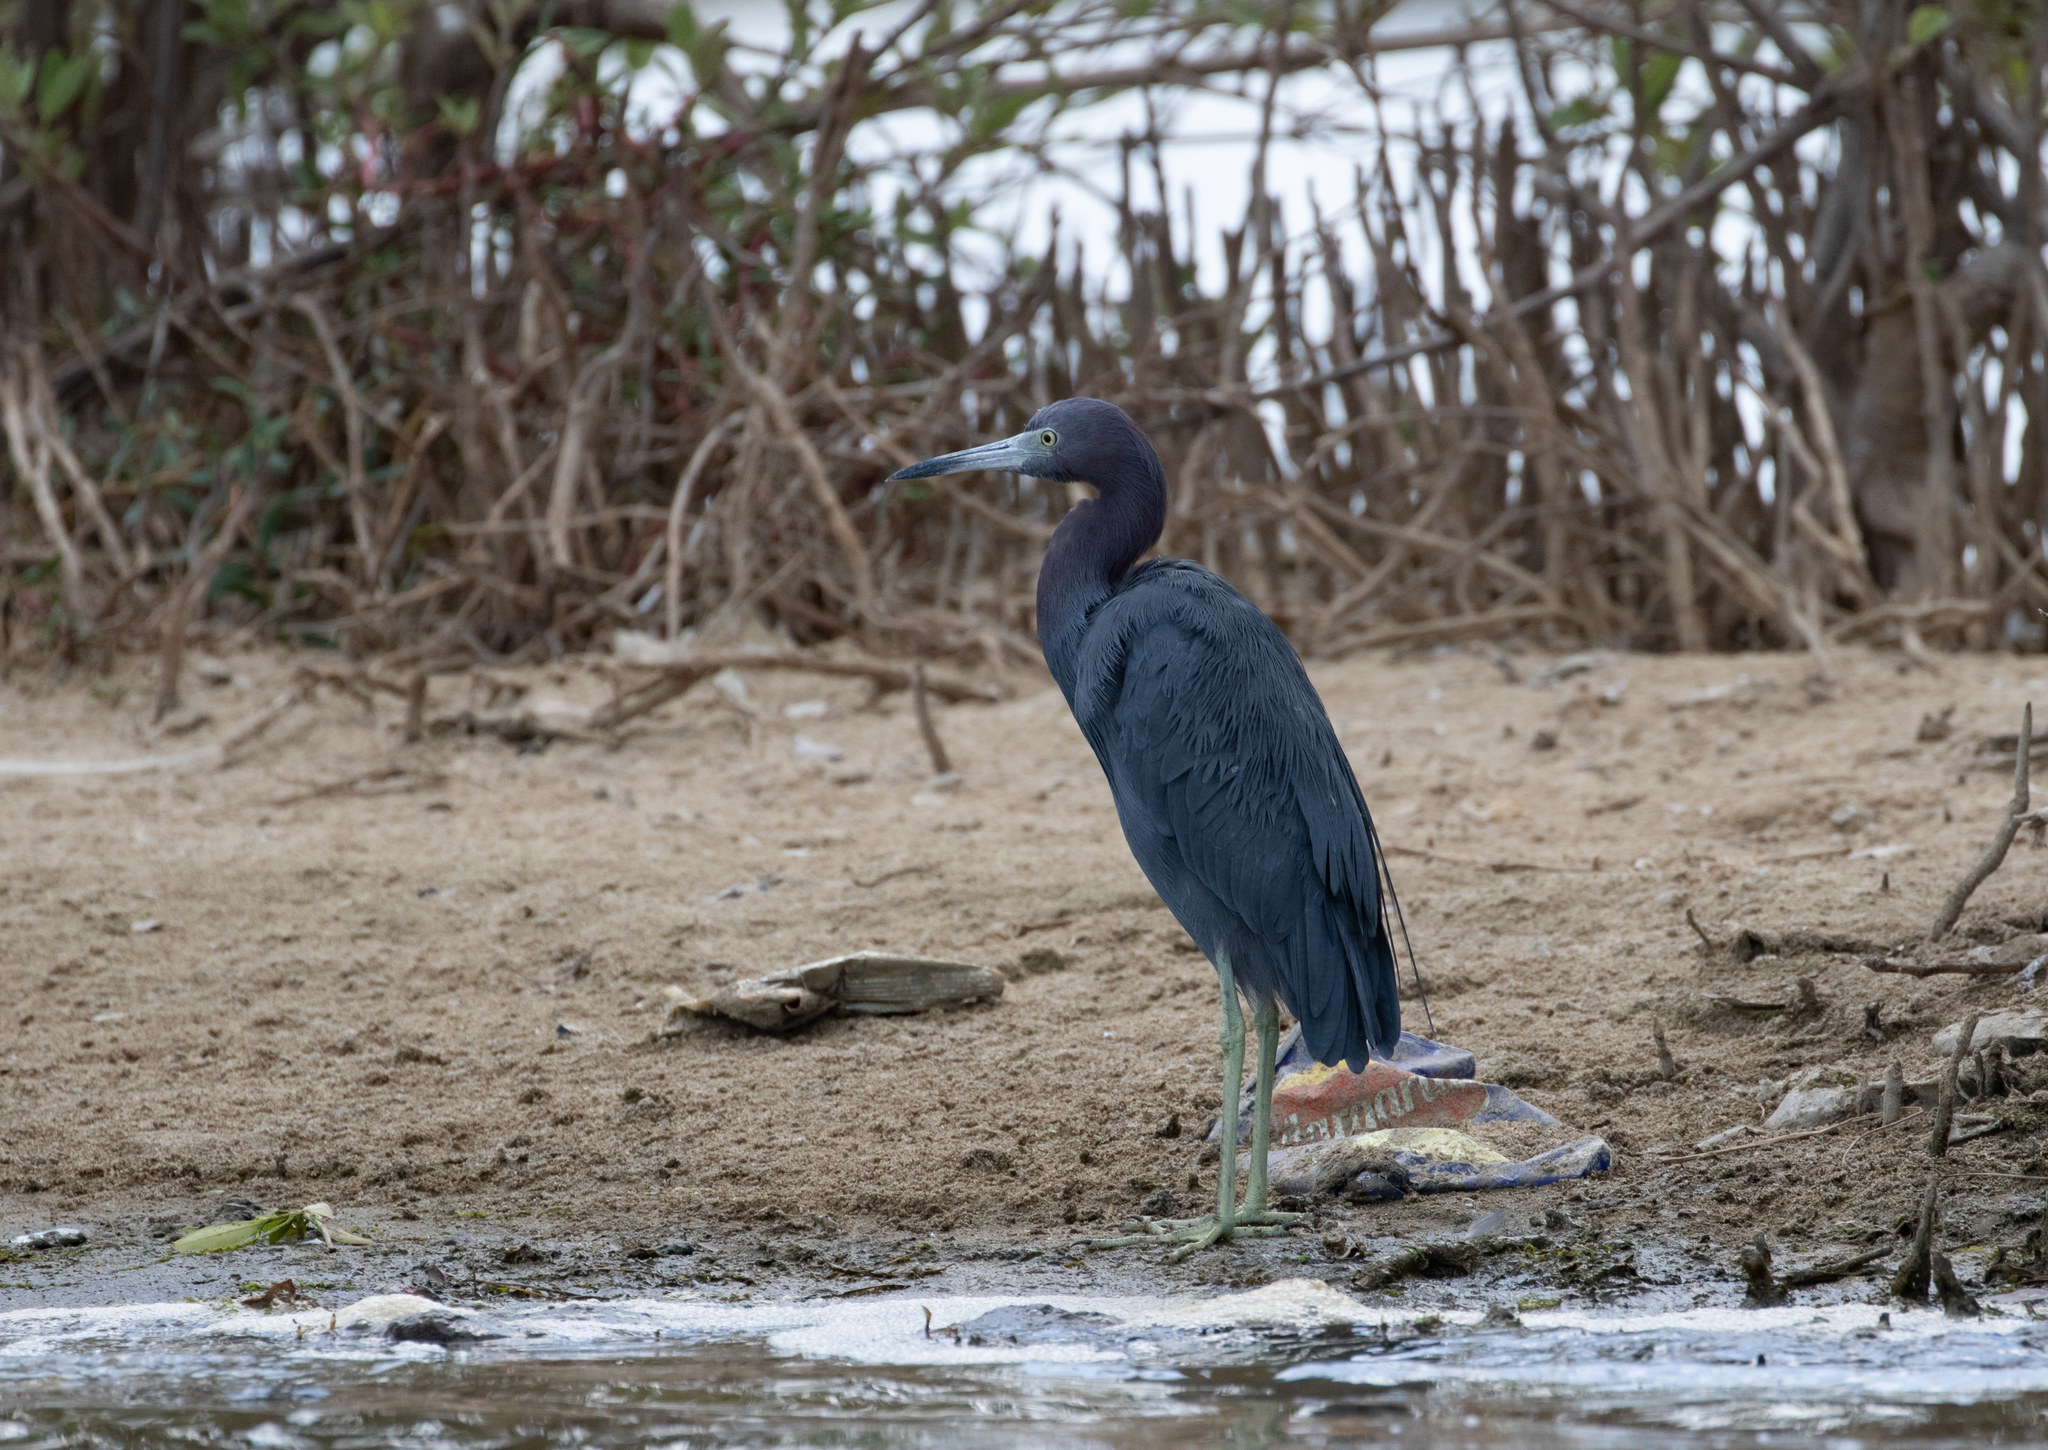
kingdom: Animalia
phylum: Chordata
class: Aves
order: Pelecaniformes
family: Ardeidae
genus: Egretta
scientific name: Egretta caerulea
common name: Little blue heron
